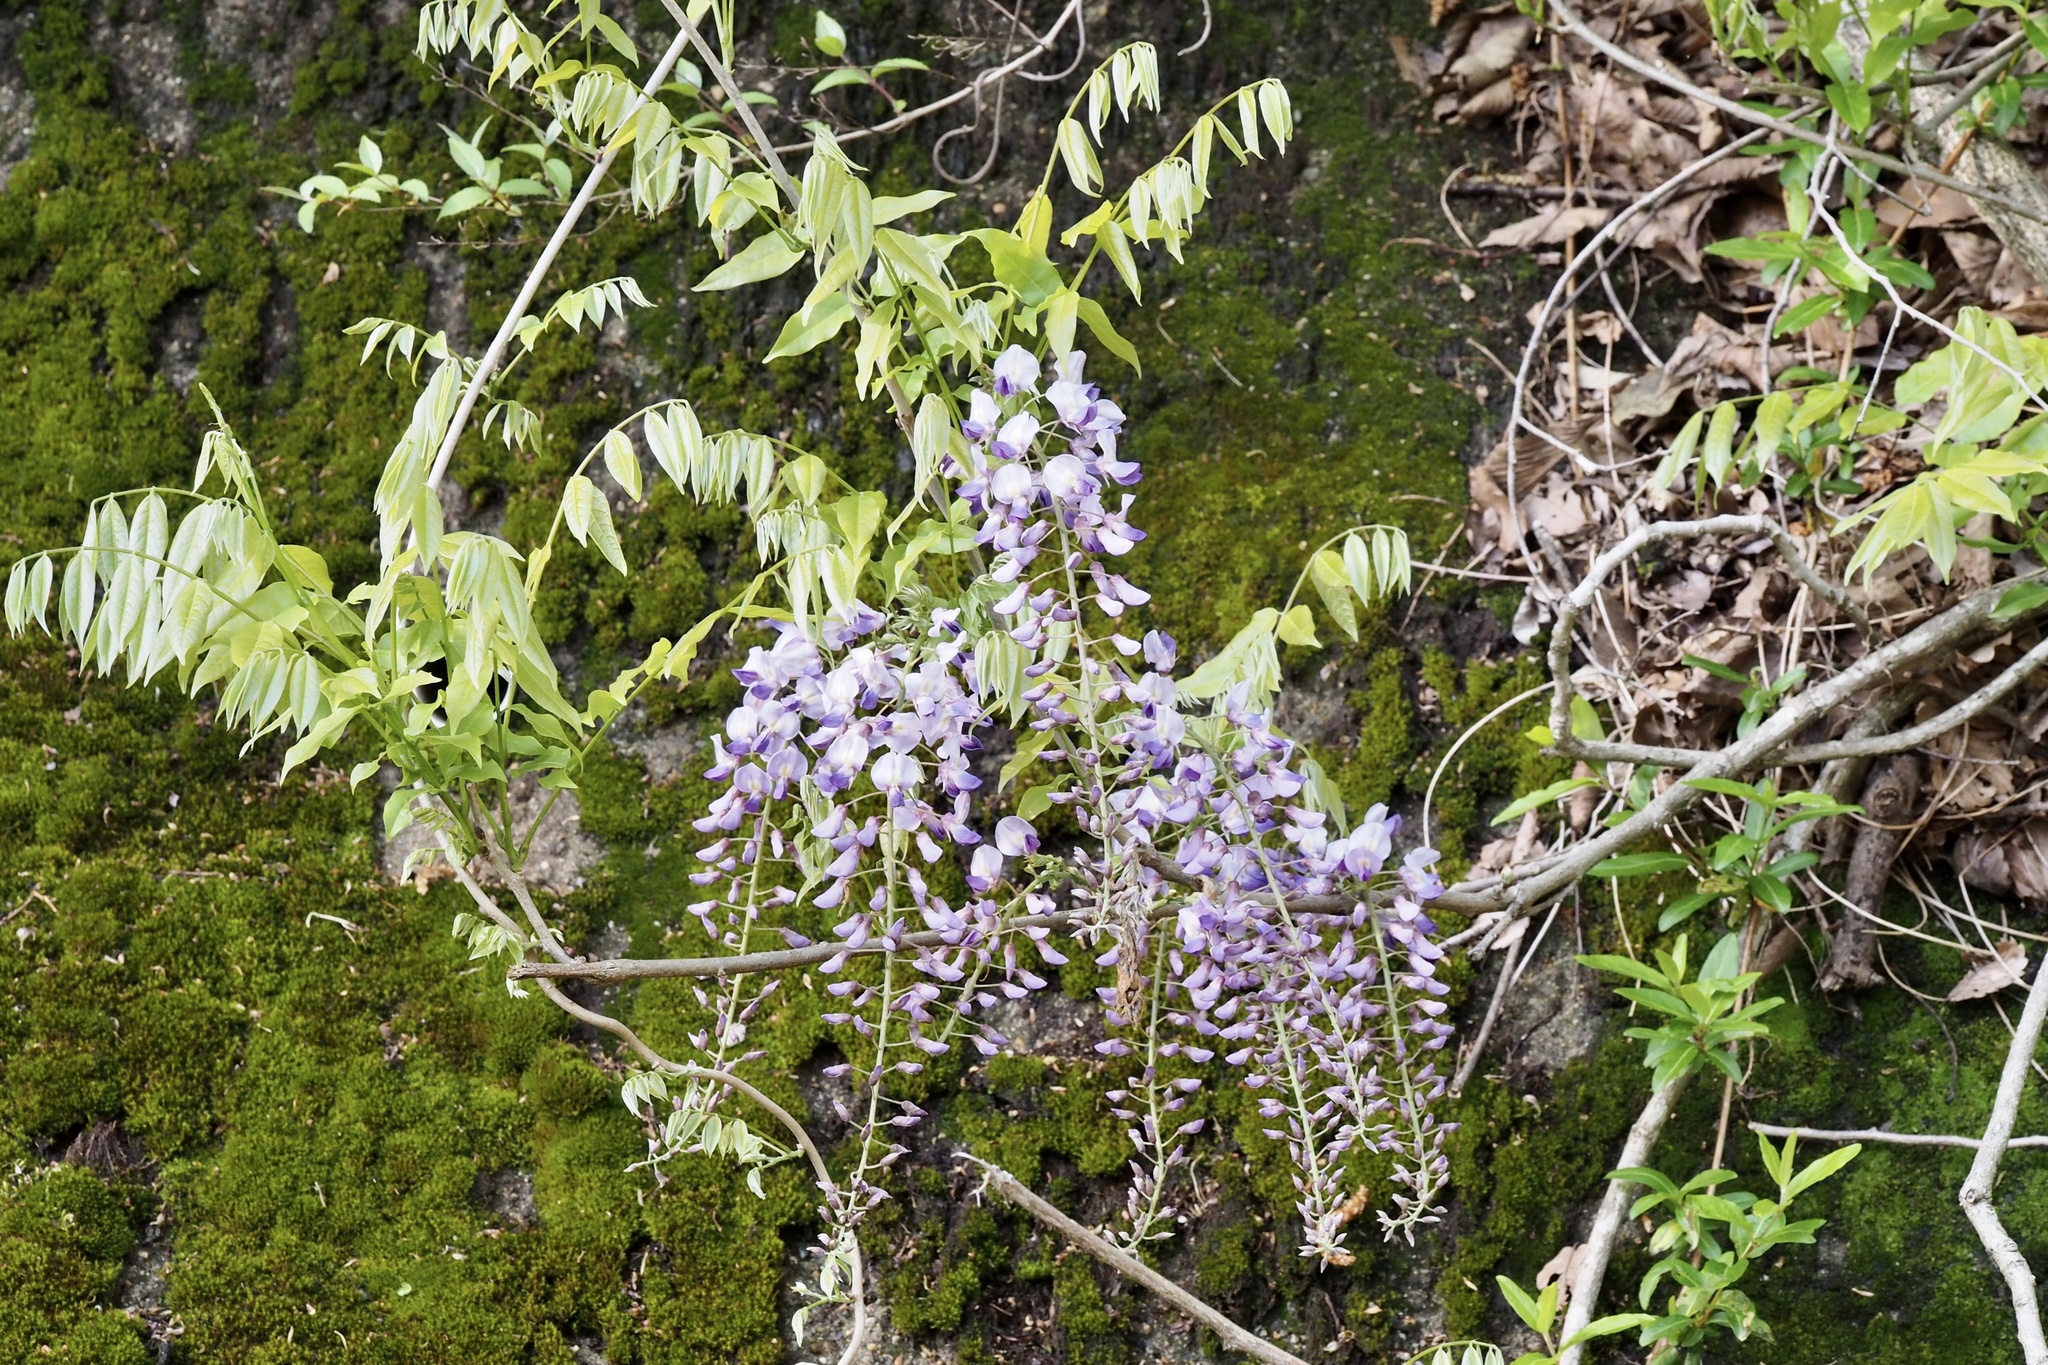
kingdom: Plantae
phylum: Tracheophyta
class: Magnoliopsida
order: Fabales
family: Fabaceae
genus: Wisteria
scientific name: Wisteria floribunda
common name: Japanese wisteria
